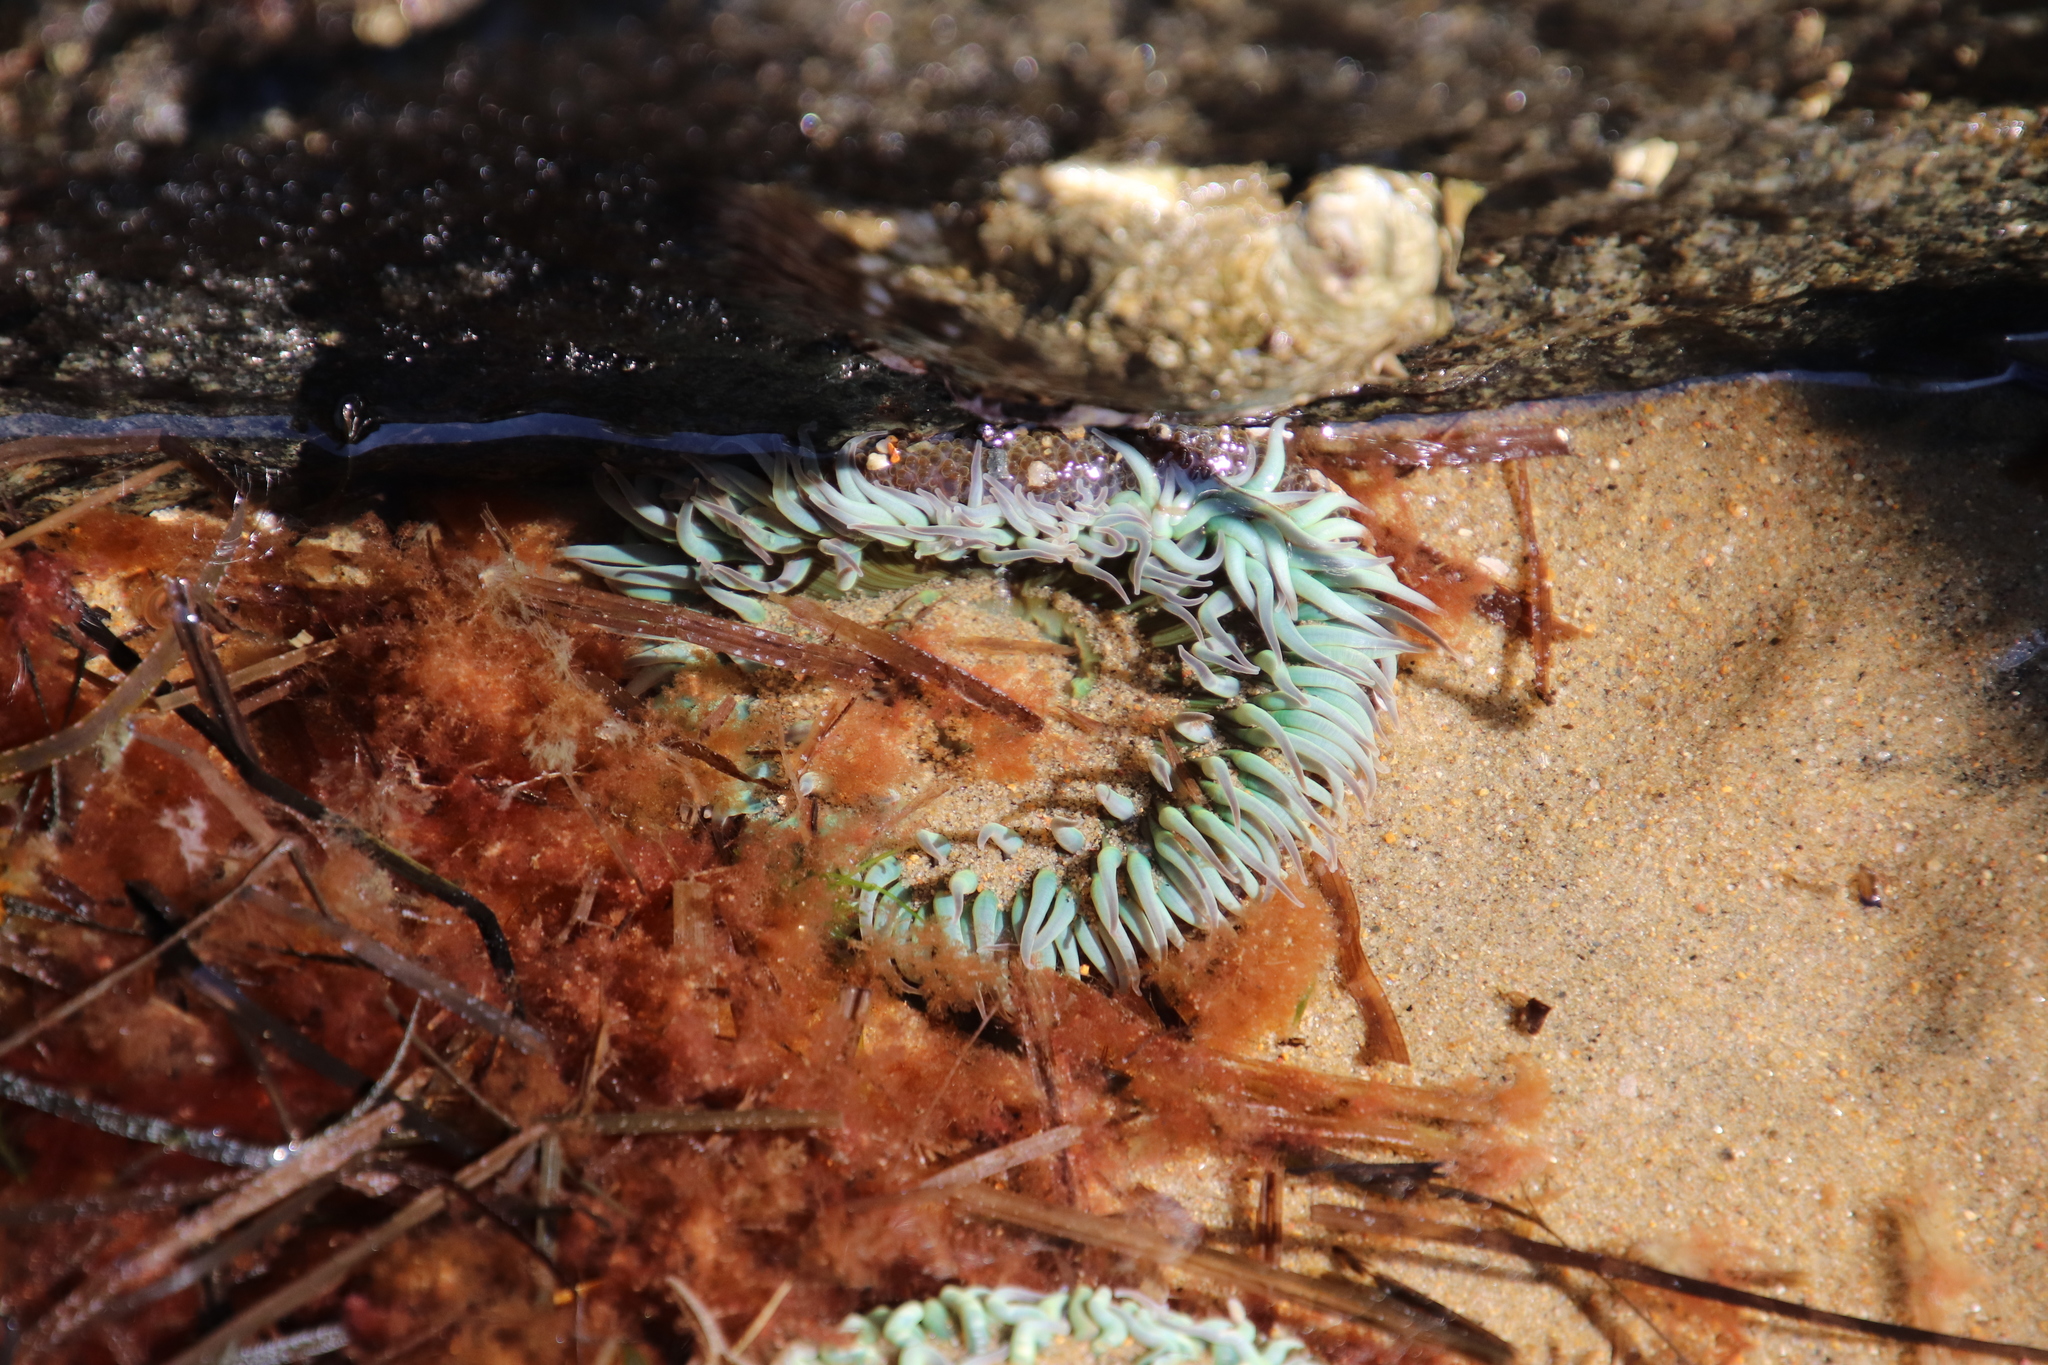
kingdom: Animalia
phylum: Cnidaria
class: Anthozoa
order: Actiniaria
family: Actiniidae
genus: Anthopleura
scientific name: Anthopleura sola
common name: Sun anemone
